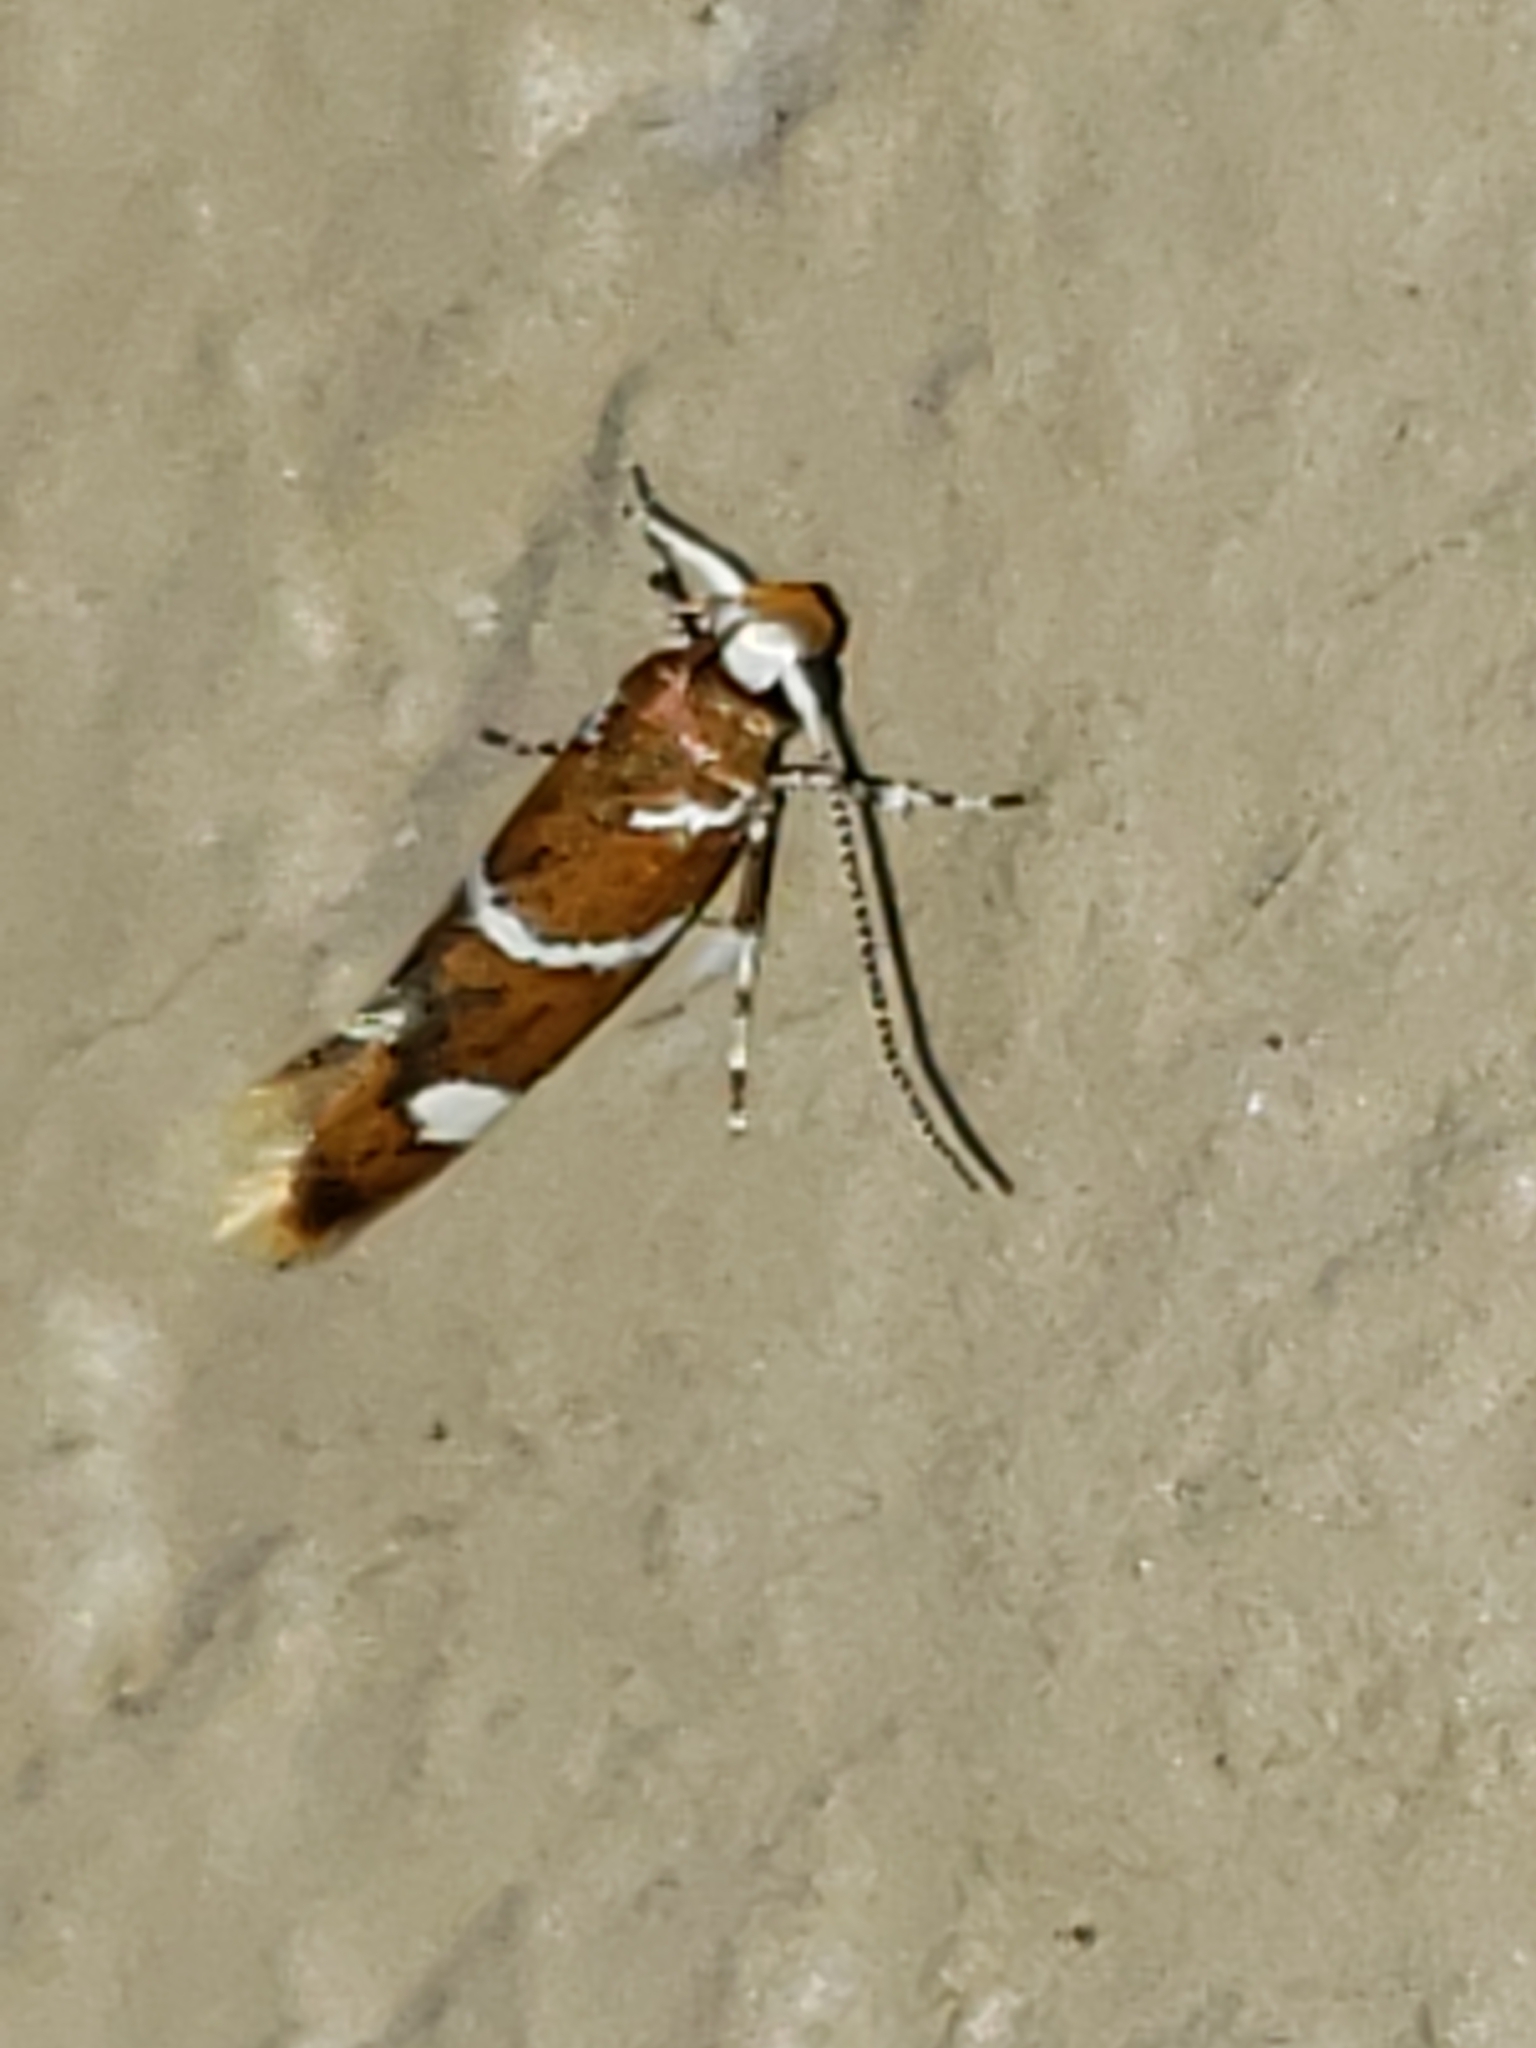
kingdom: Animalia
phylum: Arthropoda
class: Insecta
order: Lepidoptera
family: Oecophoridae
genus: Promalactis
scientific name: Promalactis suzukiella
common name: Moth
